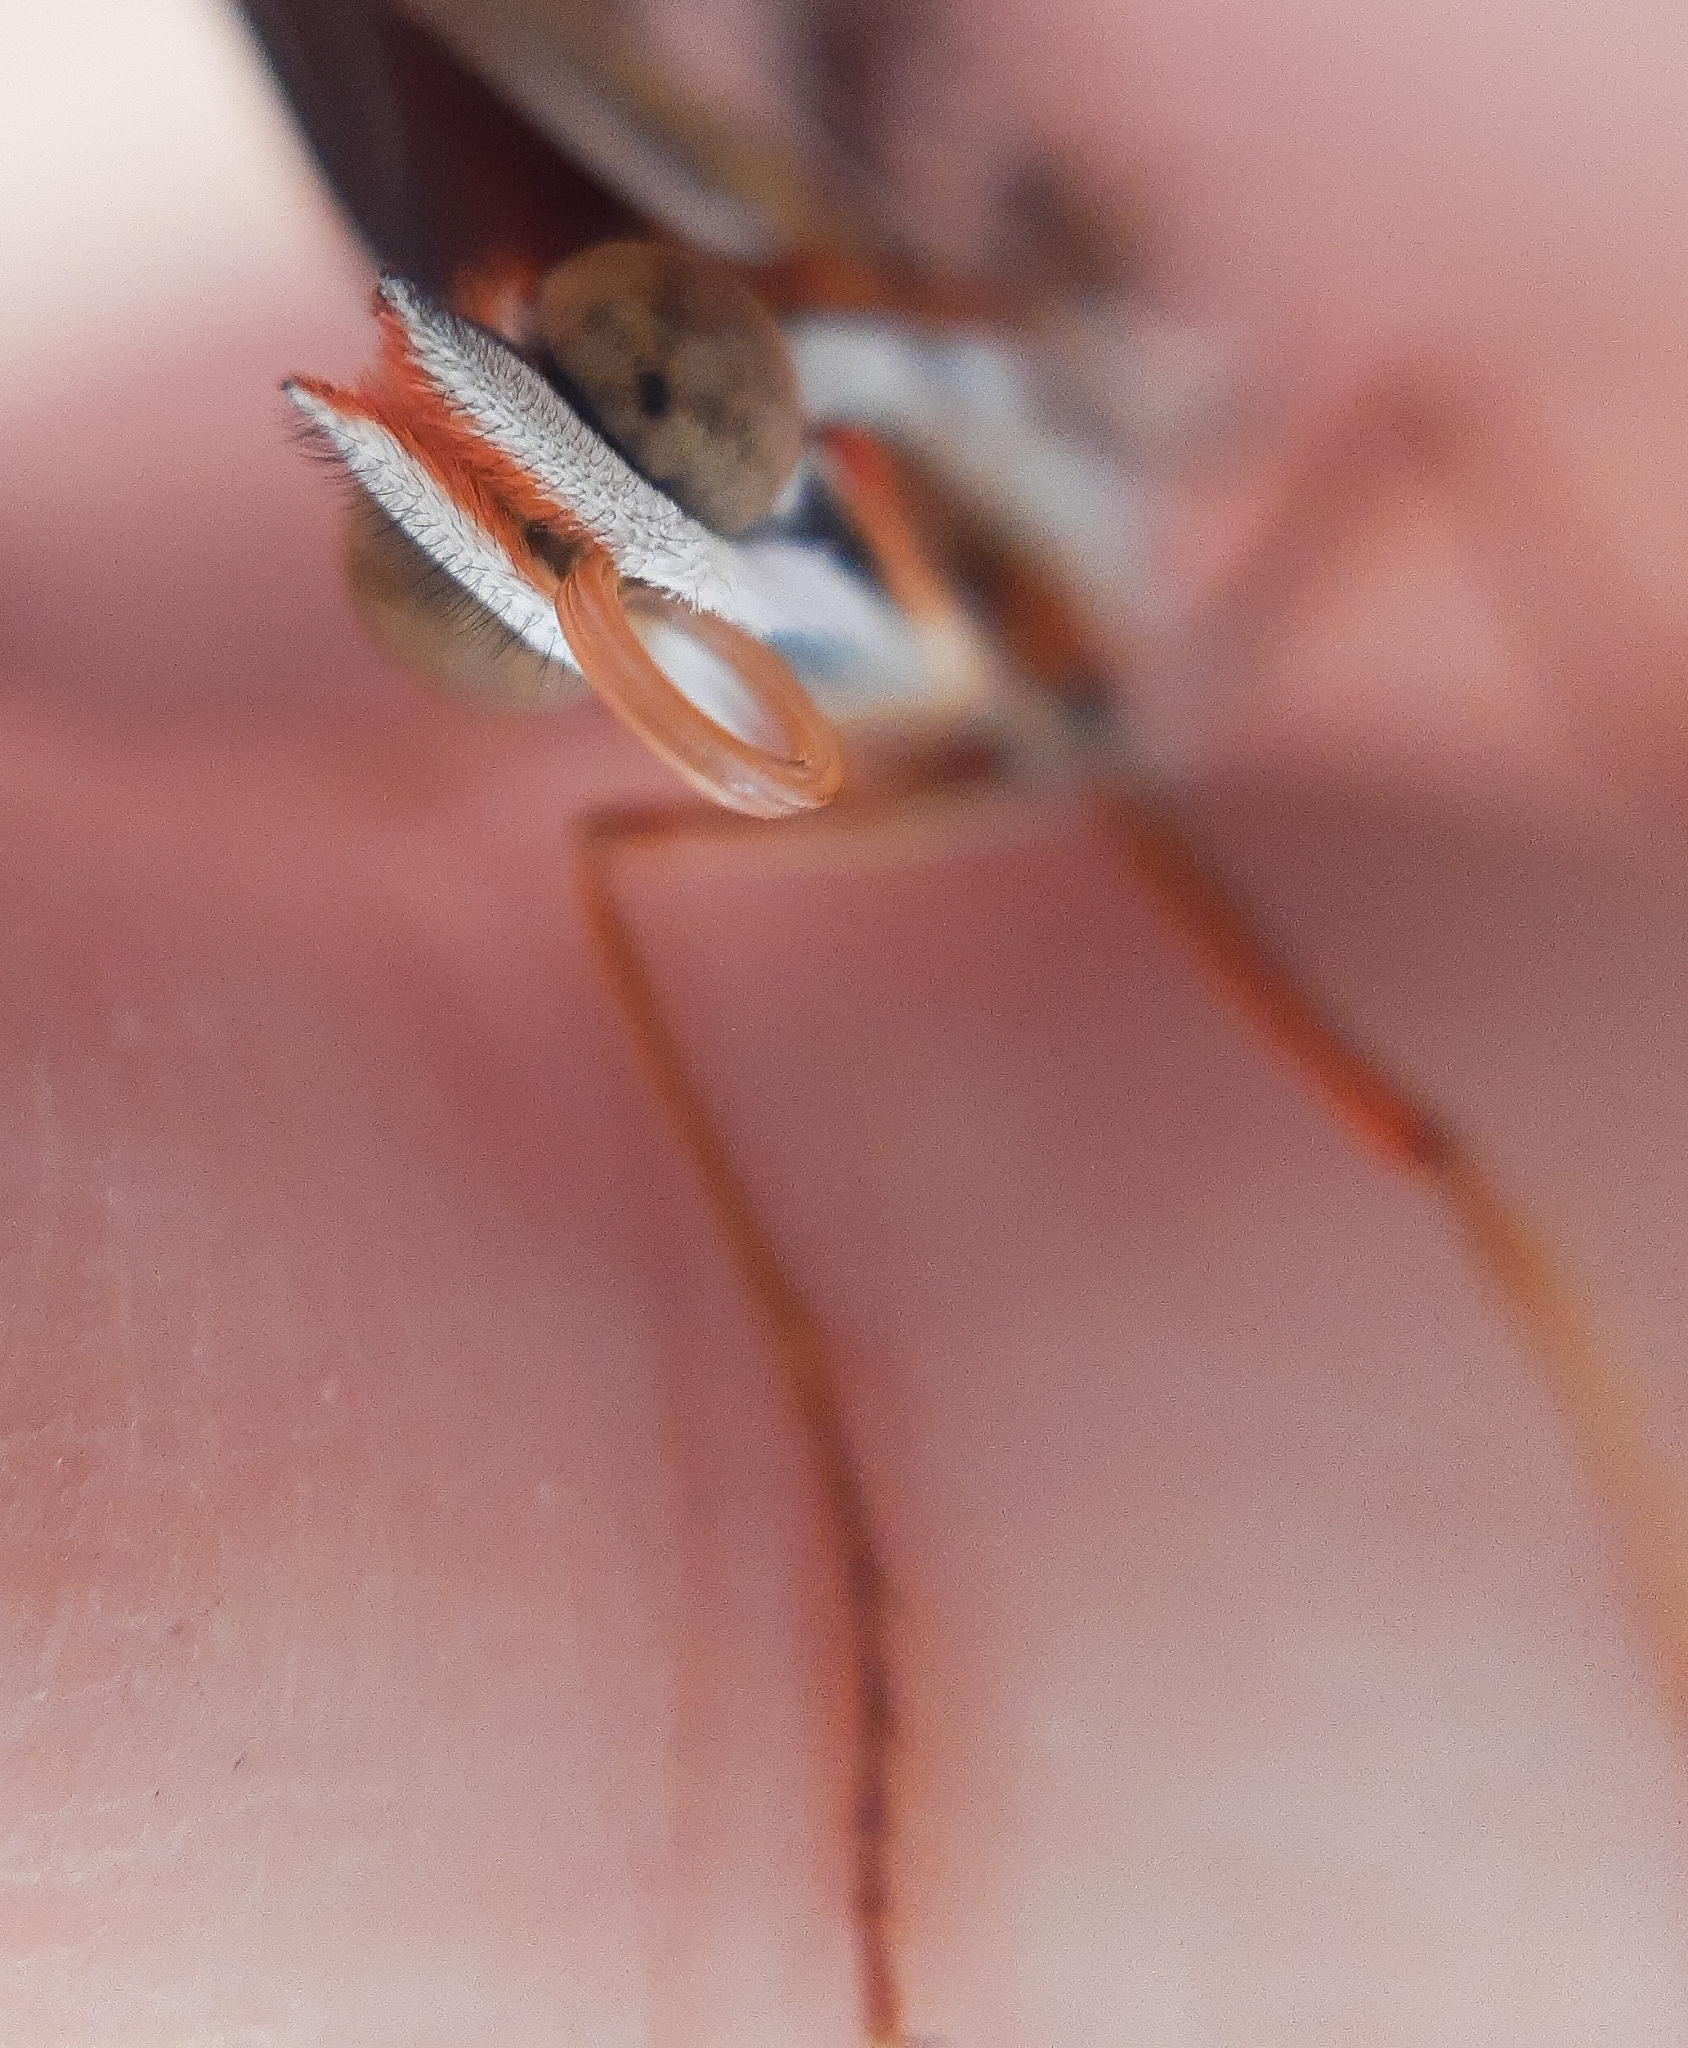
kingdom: Animalia
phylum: Arthropoda
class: Insecta
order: Lepidoptera
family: Nymphalidae
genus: Dione
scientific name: Dione vanillae
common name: Gulf fritillary
